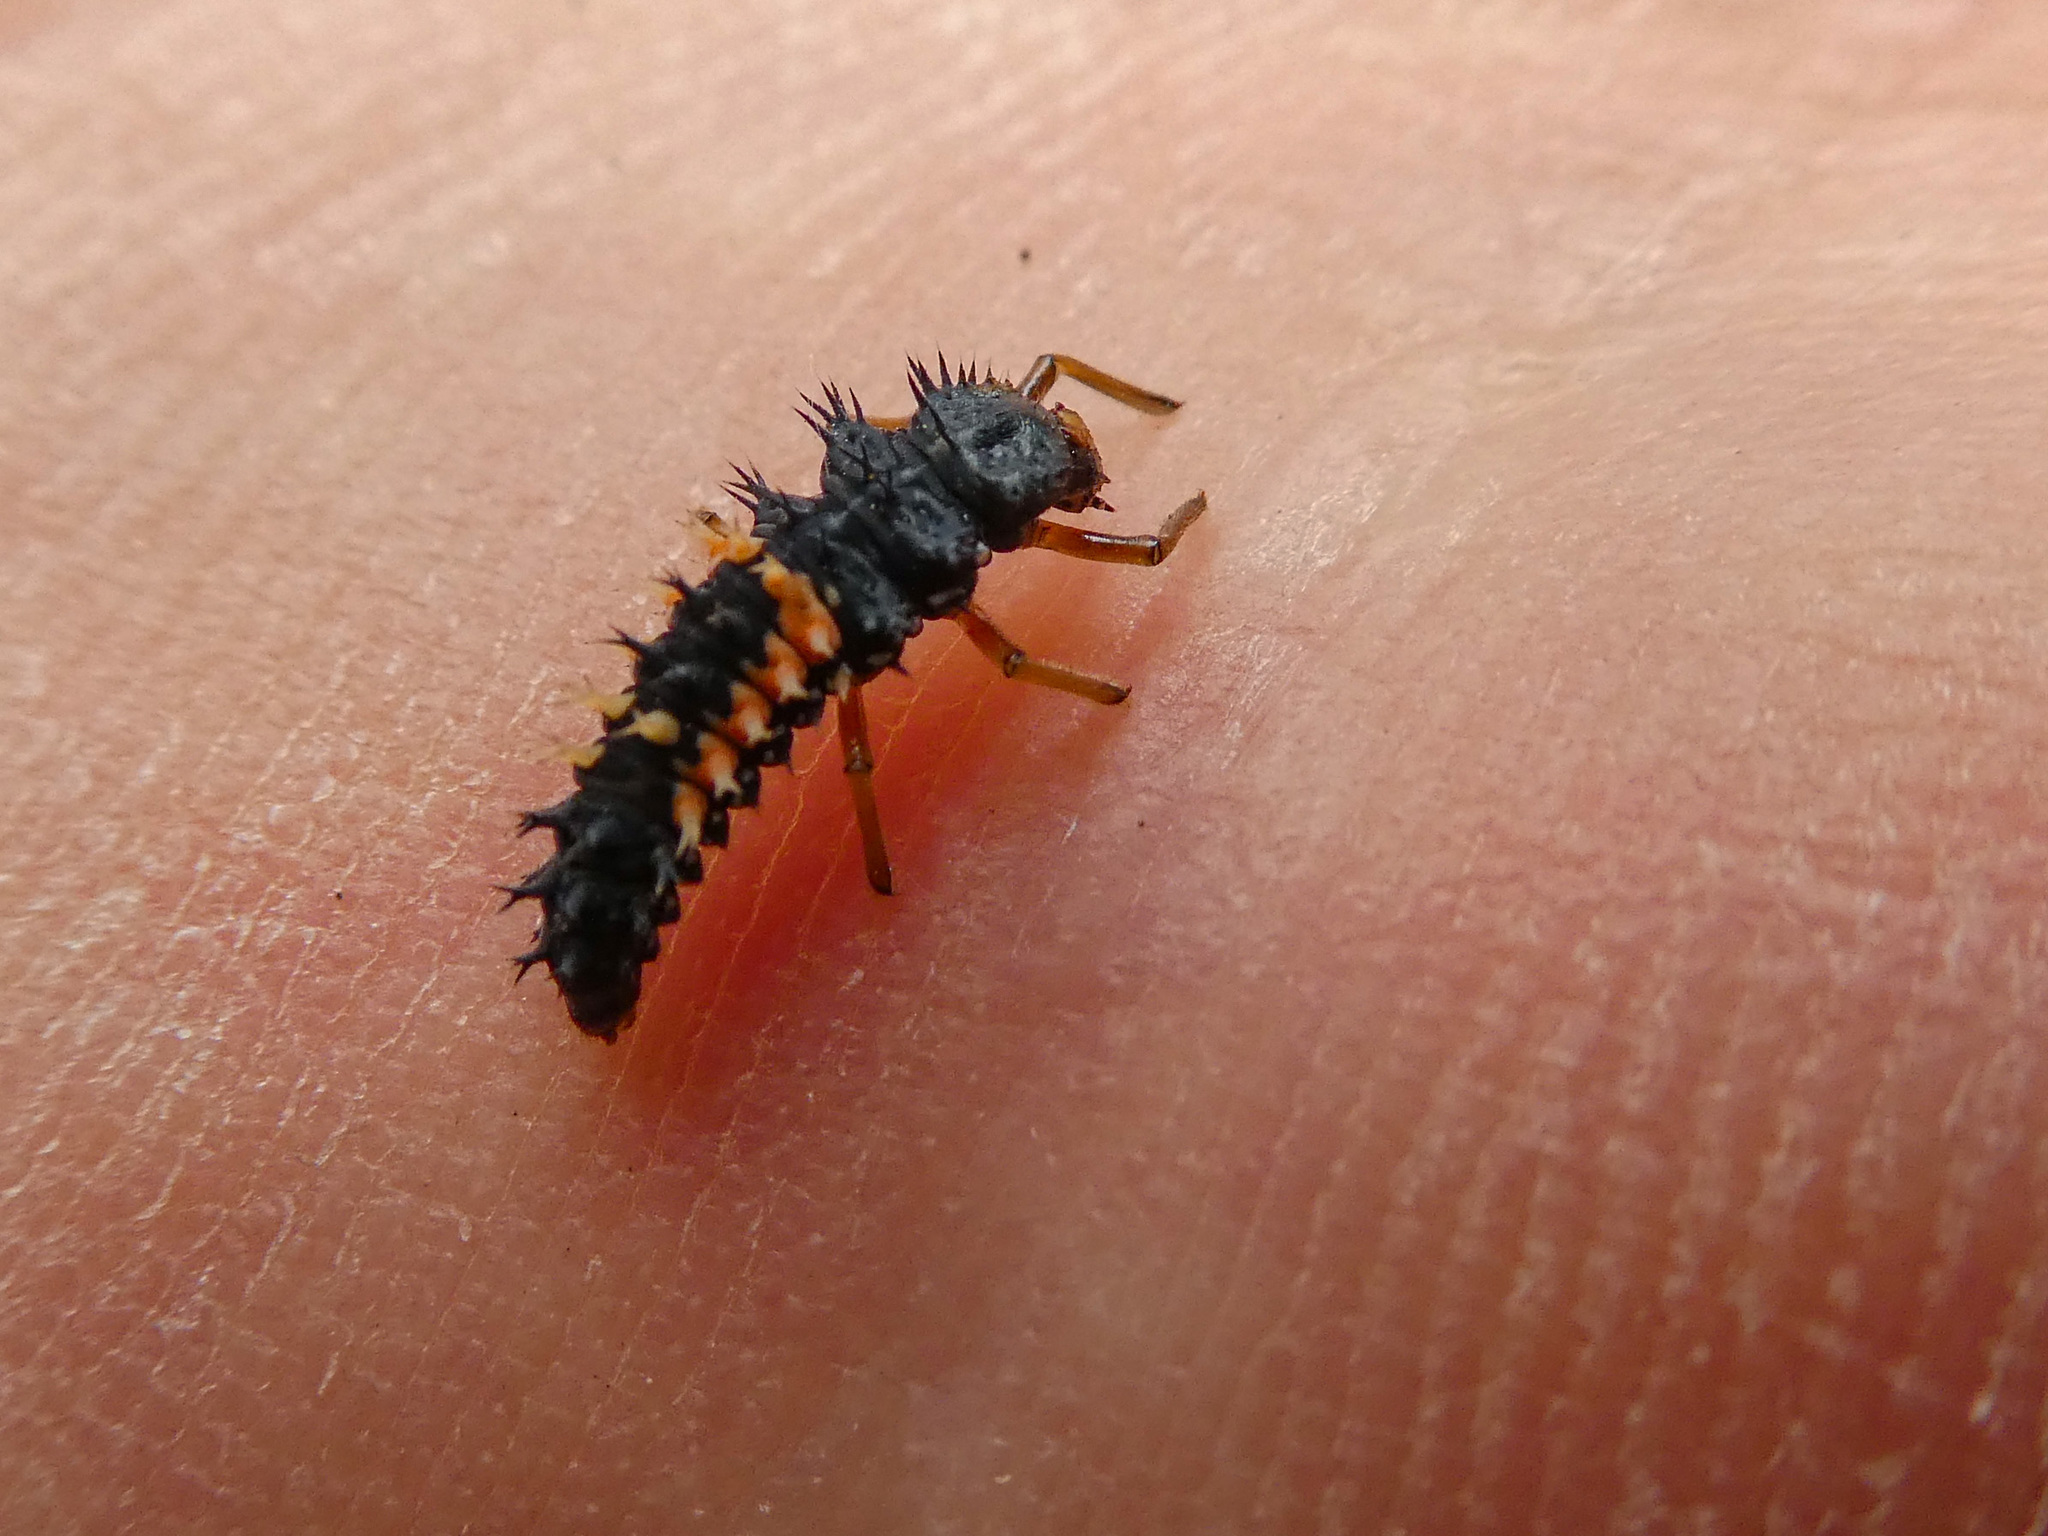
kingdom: Animalia
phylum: Arthropoda
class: Insecta
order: Coleoptera
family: Coccinellidae
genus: Harmonia
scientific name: Harmonia axyridis
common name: Harlequin ladybird
